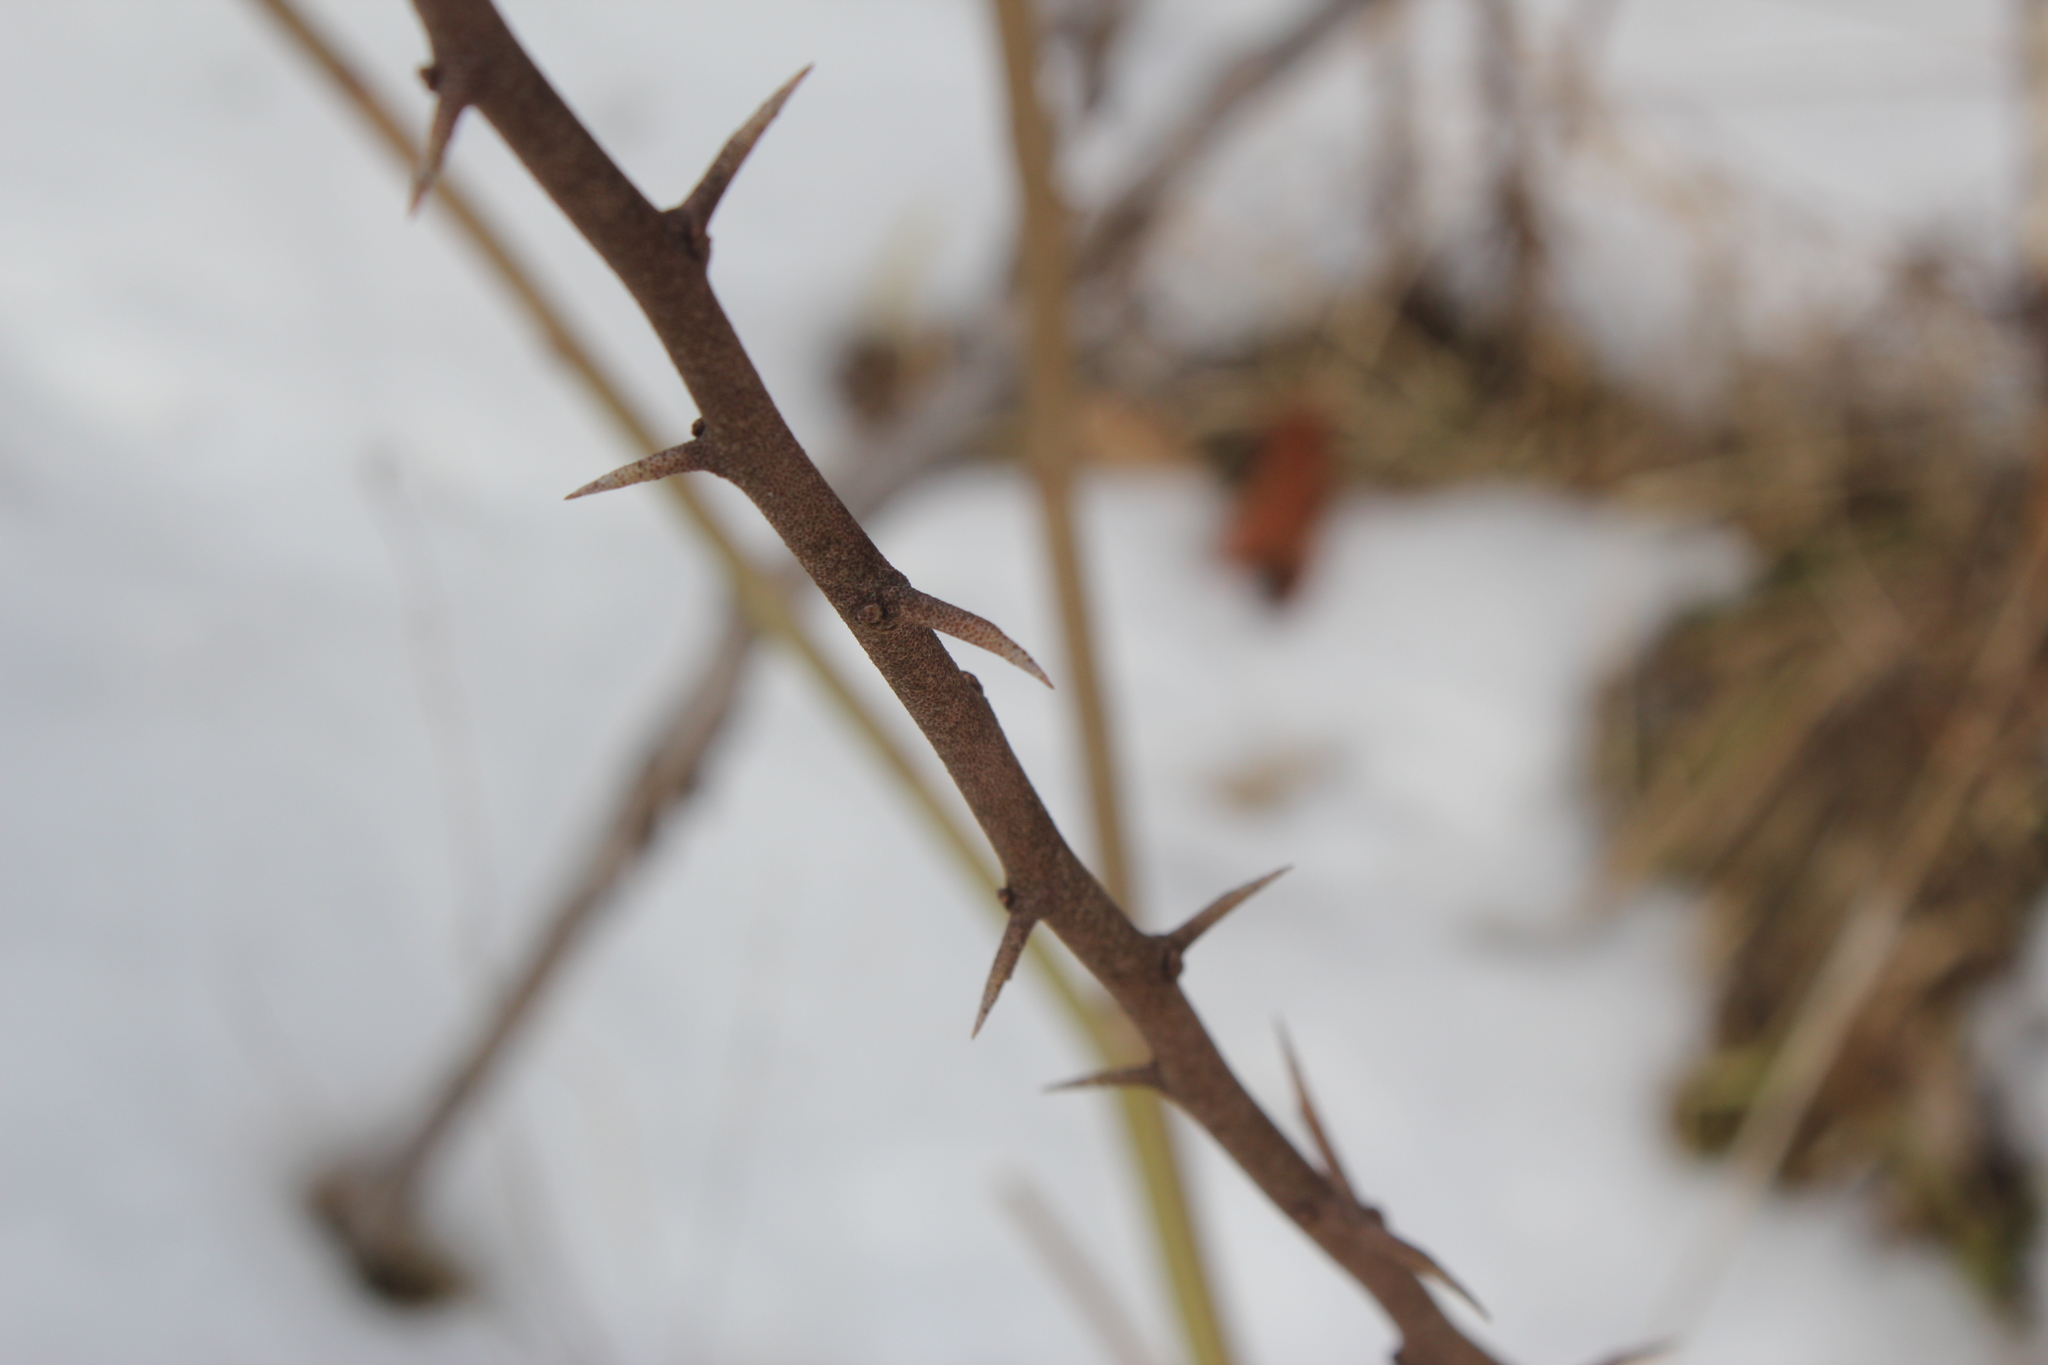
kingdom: Plantae
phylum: Tracheophyta
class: Magnoliopsida
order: Rosales
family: Elaeagnaceae
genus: Elaeagnus
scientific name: Elaeagnus umbellata
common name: Autumn olive
